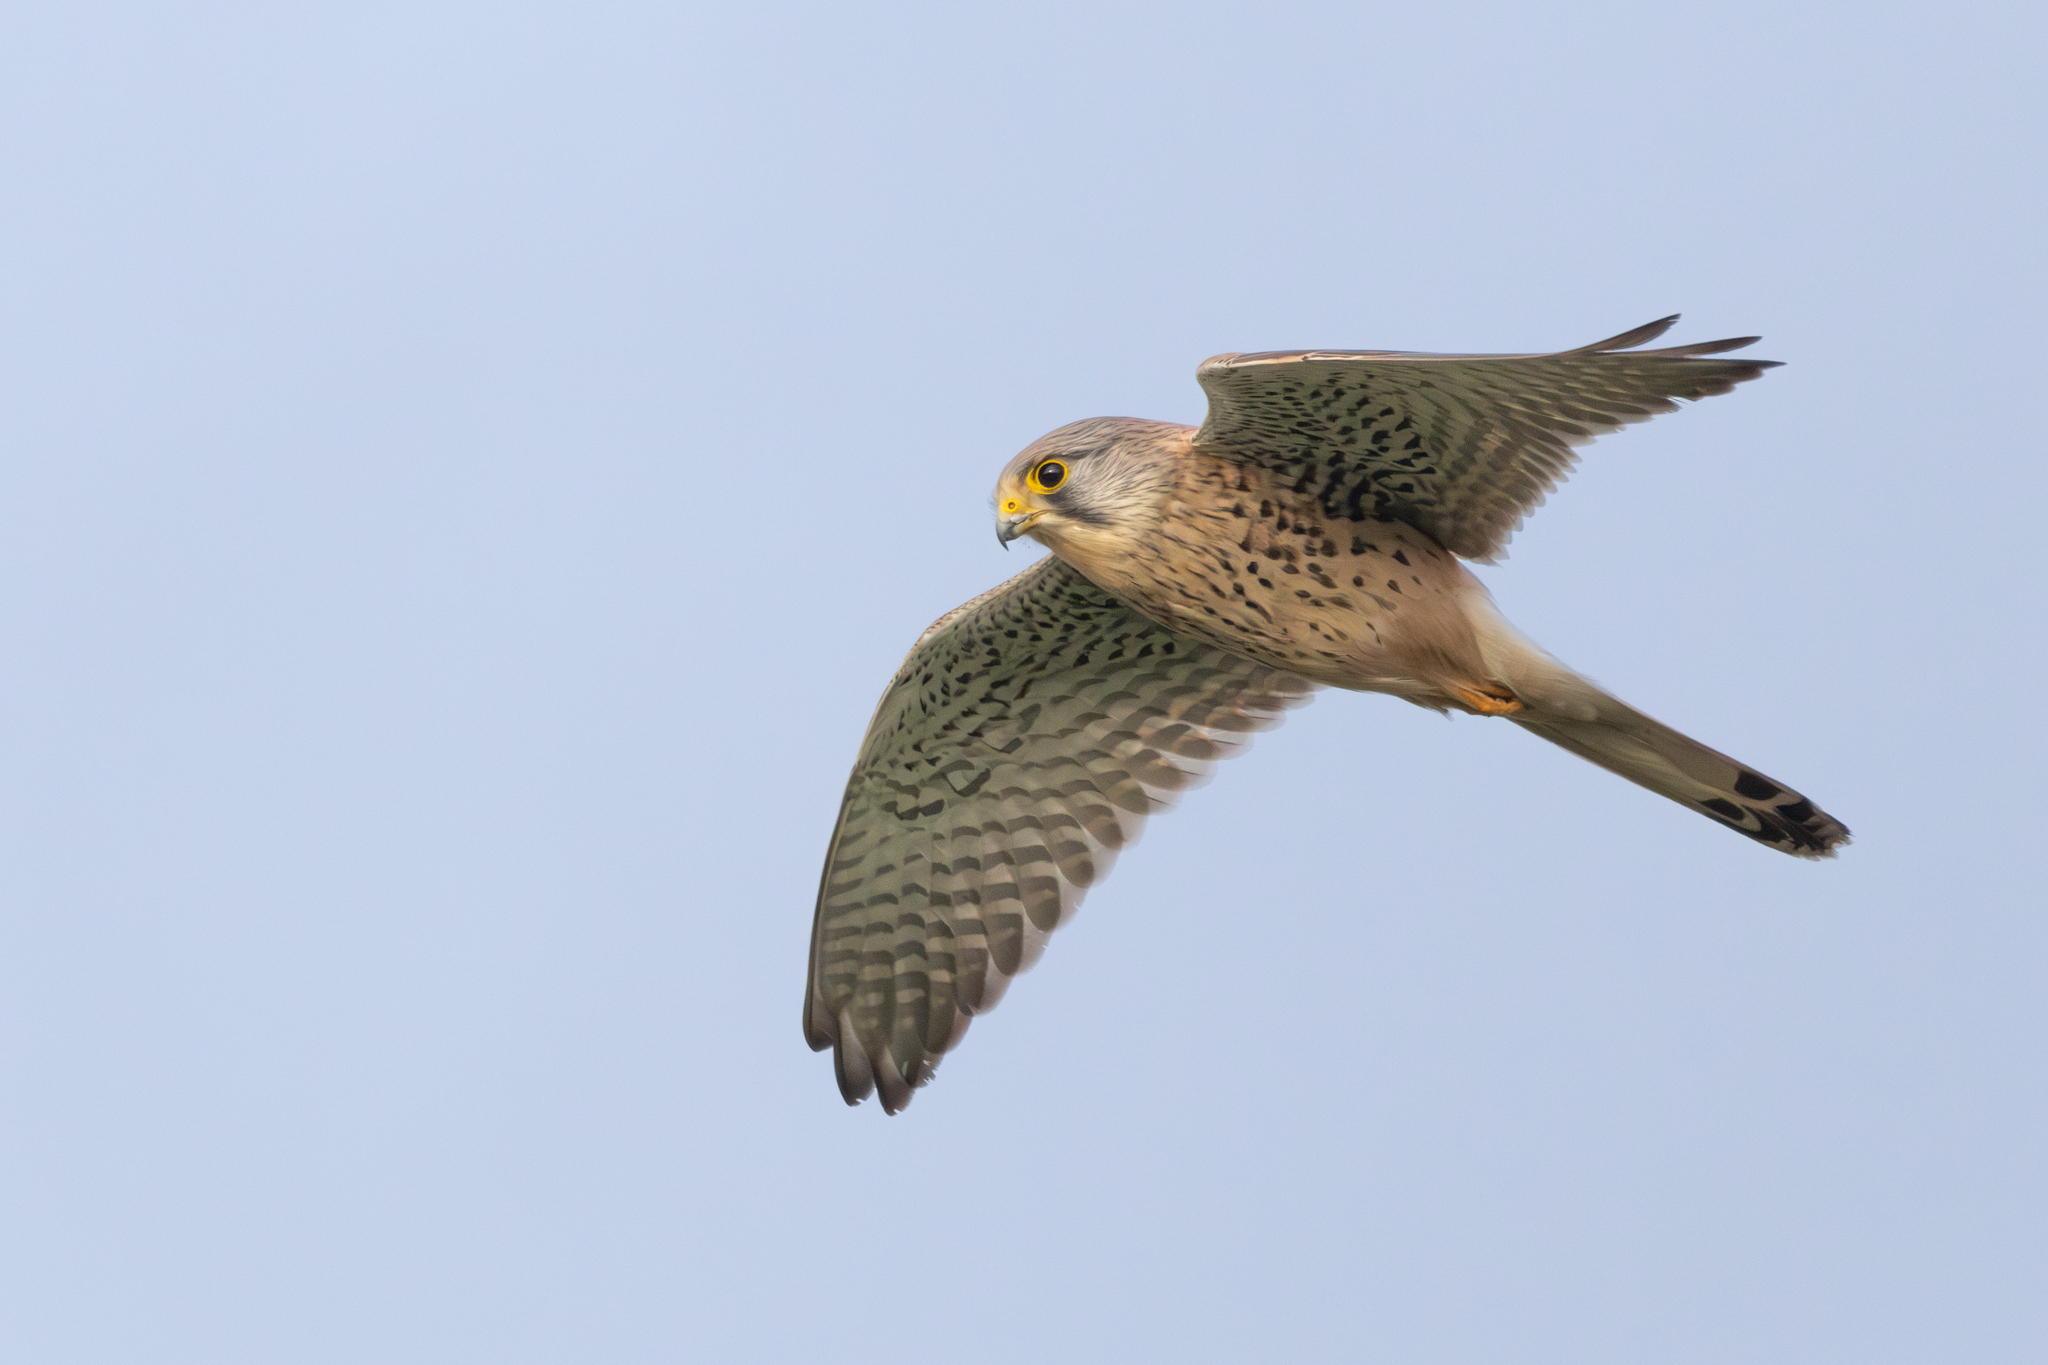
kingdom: Animalia
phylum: Chordata
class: Aves
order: Falconiformes
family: Falconidae
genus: Falco
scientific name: Falco tinnunculus
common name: Common kestrel
